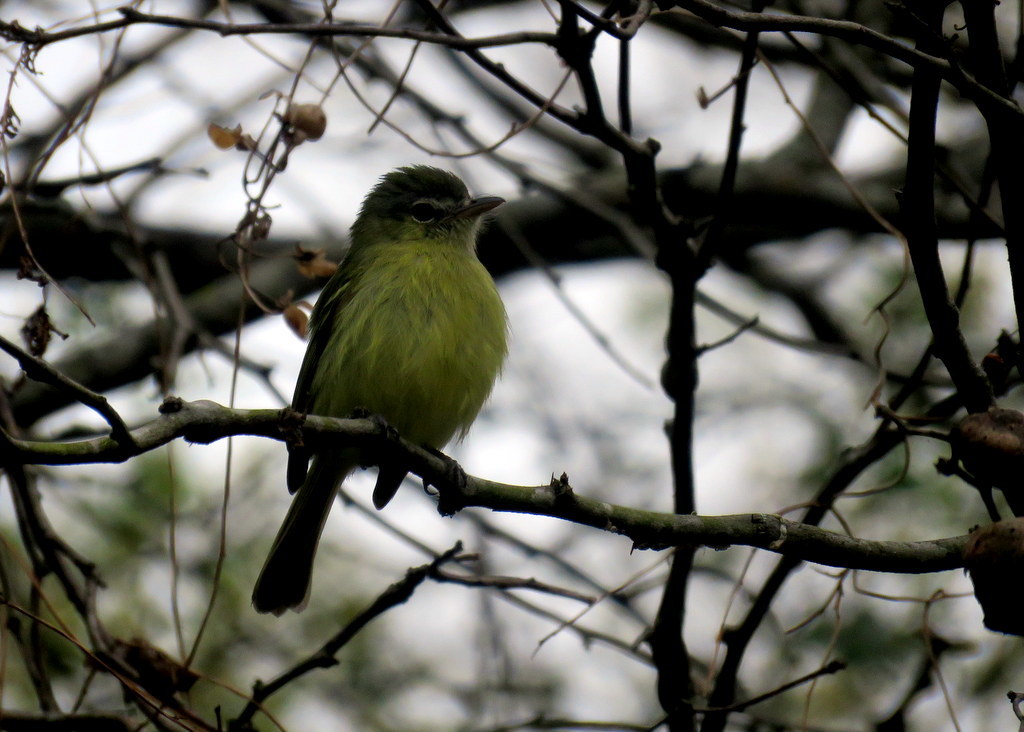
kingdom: Animalia
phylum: Chordata
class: Aves
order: Passeriformes
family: Tyrannidae
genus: Tolmomyias
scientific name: Tolmomyias sulphurescens
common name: Yellow-olive flycatcher
